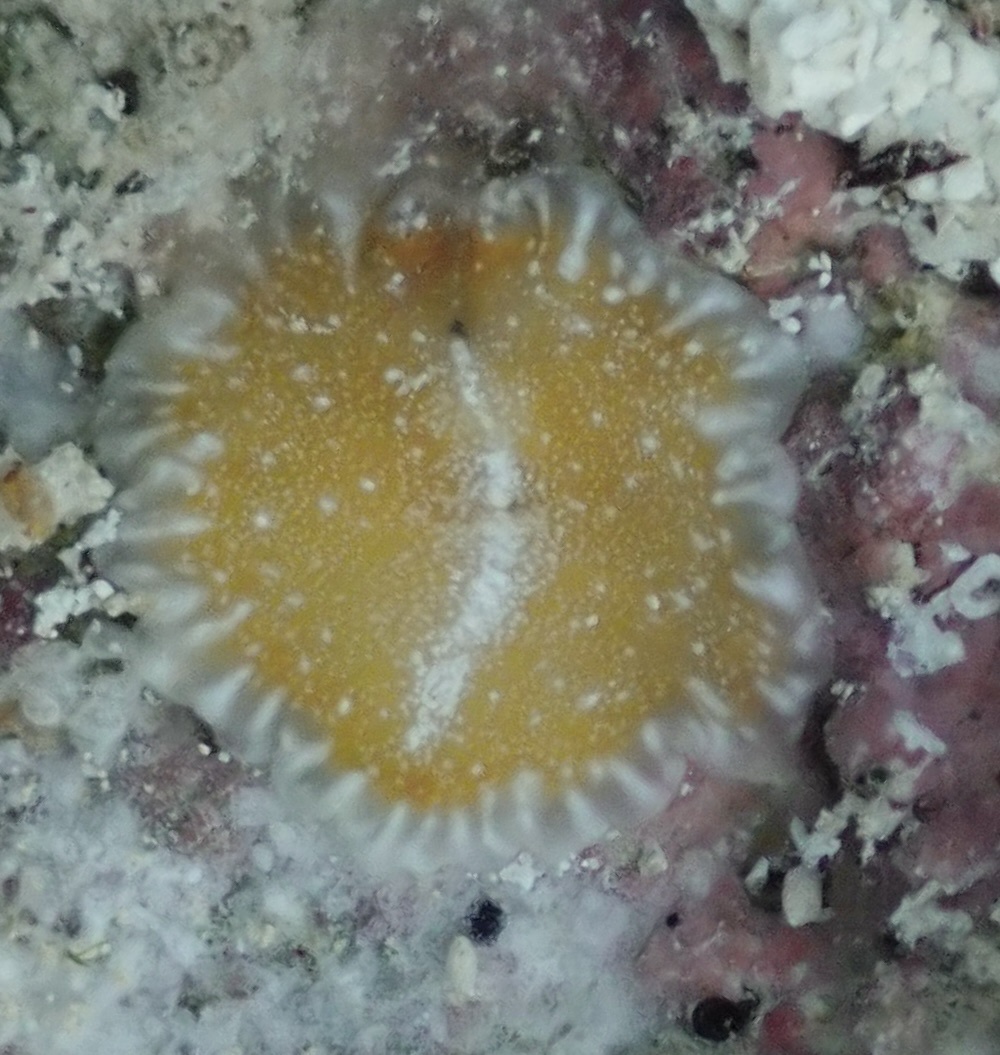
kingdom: Animalia
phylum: Platyhelminthes
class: Turbellaria
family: Pseudocerotidae
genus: Pseudoceros
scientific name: Pseudoceros bicolor
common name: Bicolored flatworm
